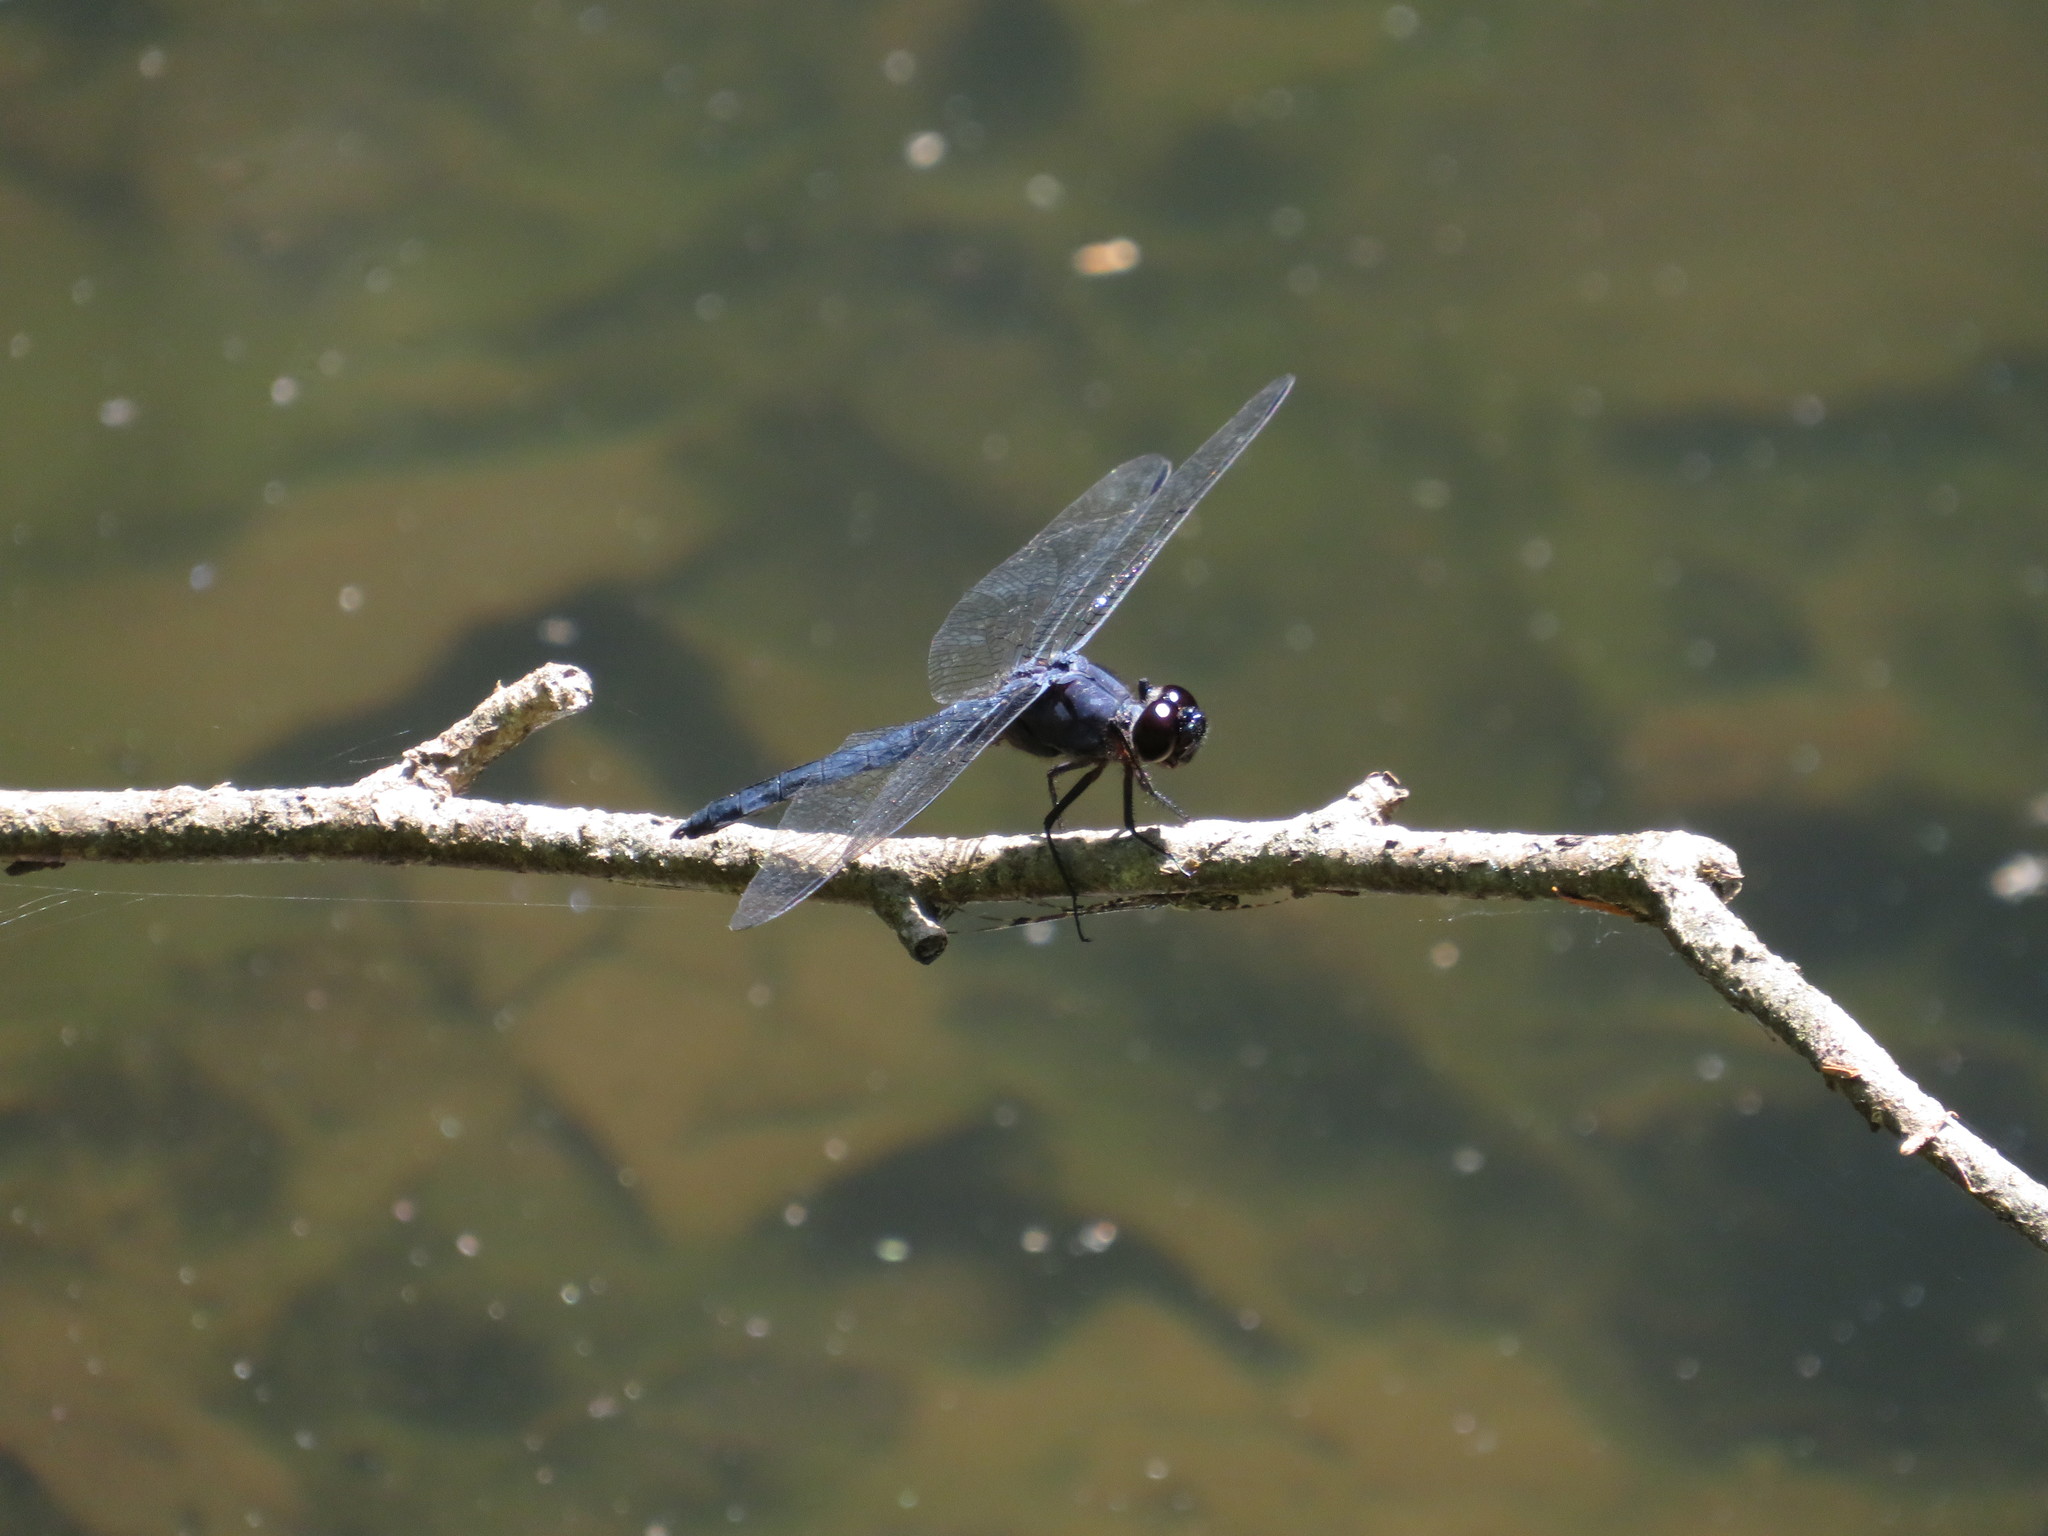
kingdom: Animalia
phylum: Arthropoda
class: Insecta
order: Odonata
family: Libellulidae
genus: Libellula
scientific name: Libellula incesta
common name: Slaty skimmer
